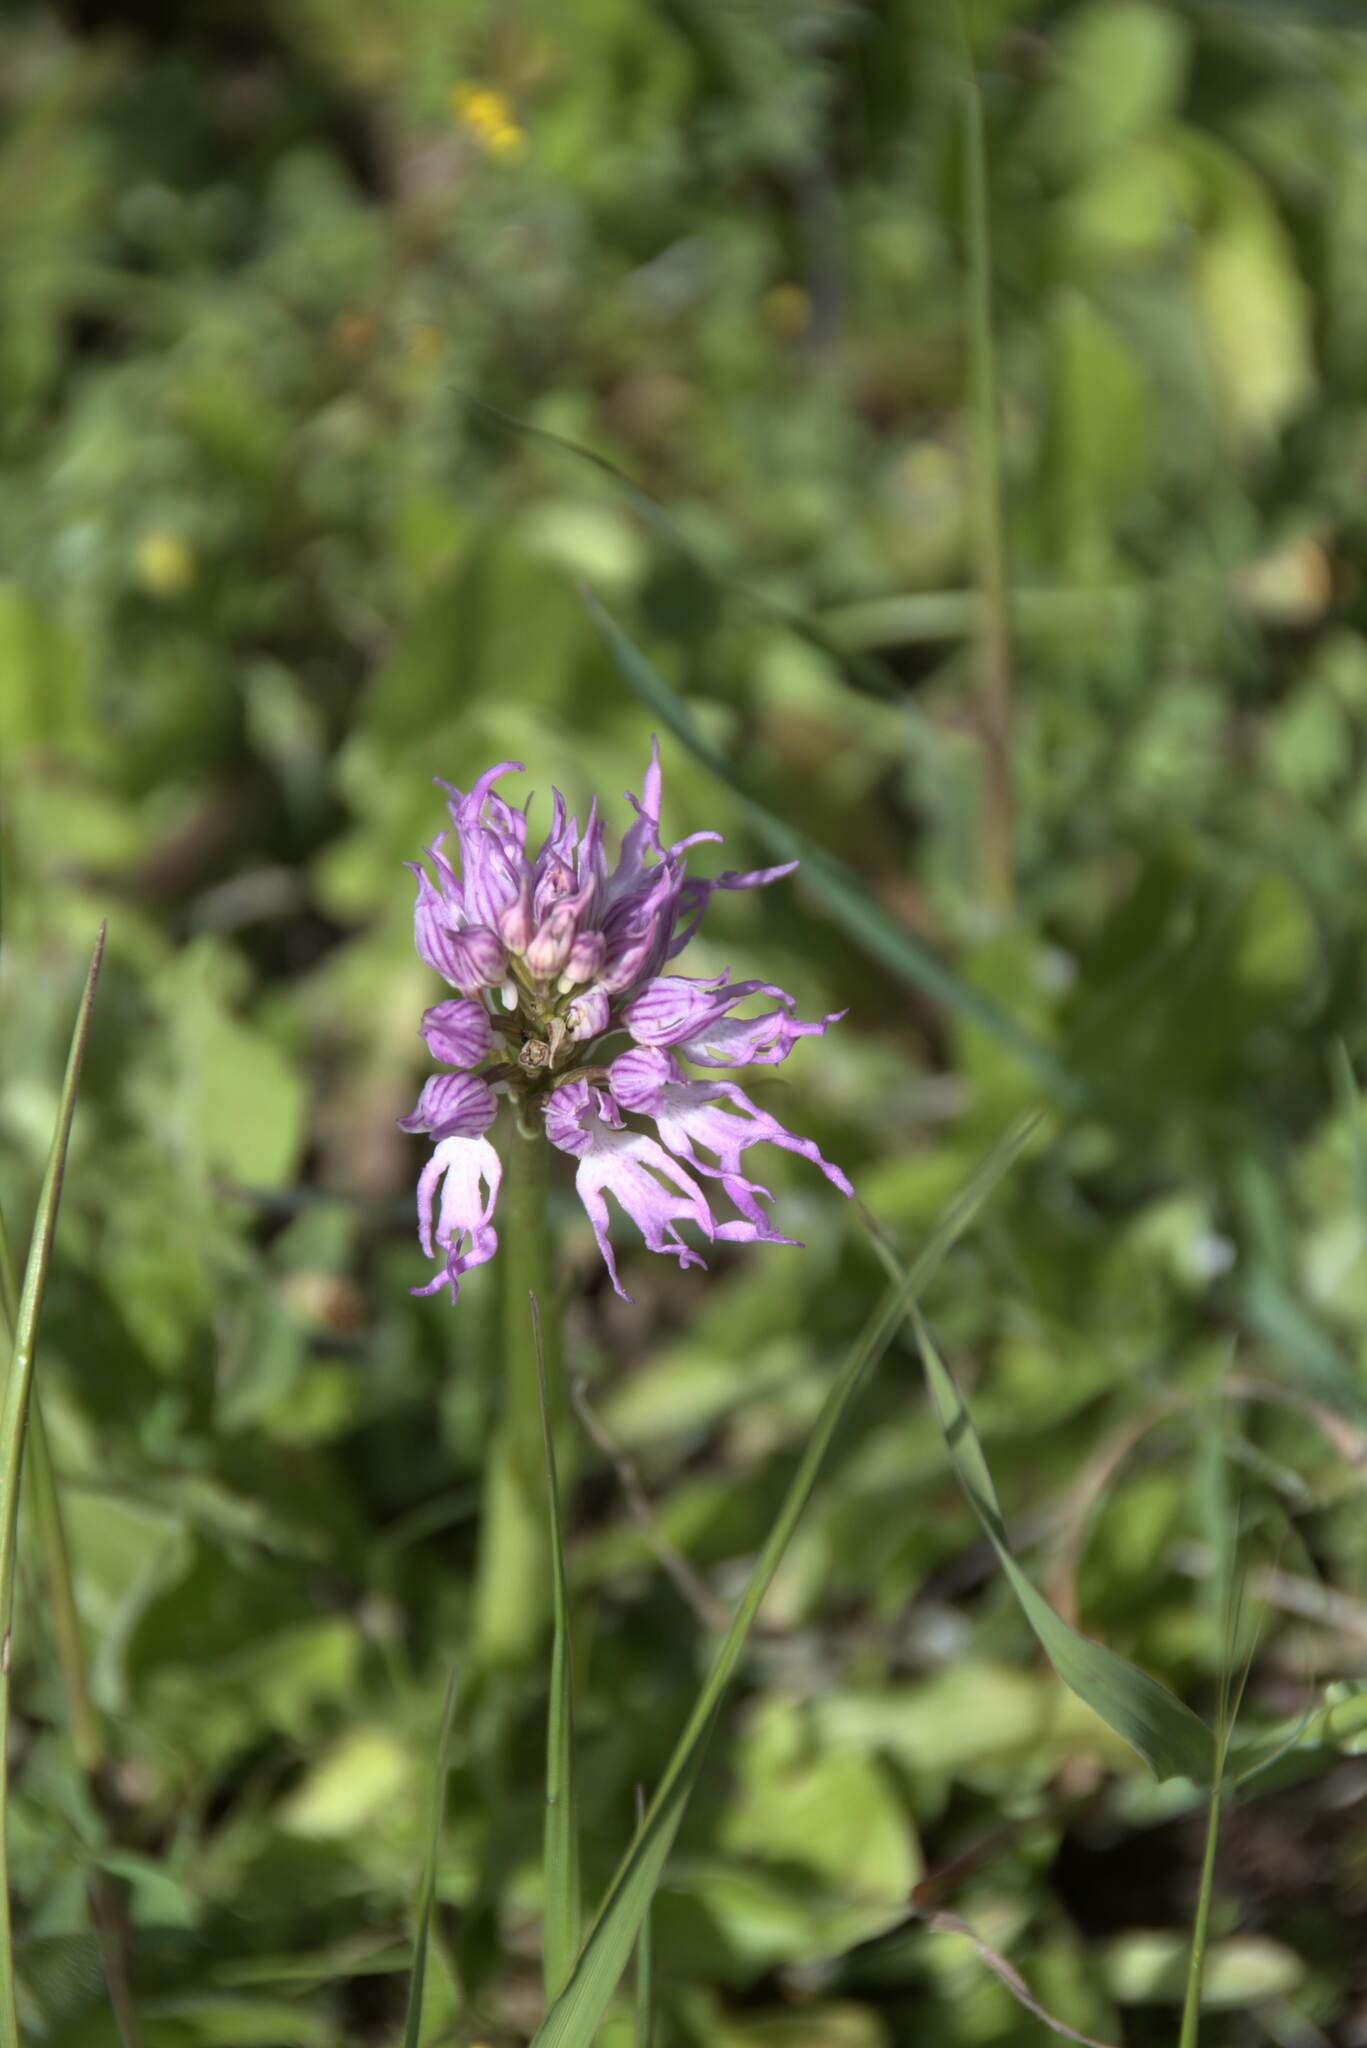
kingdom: Plantae
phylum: Tracheophyta
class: Liliopsida
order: Asparagales
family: Orchidaceae
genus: Orchis
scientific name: Orchis italica
